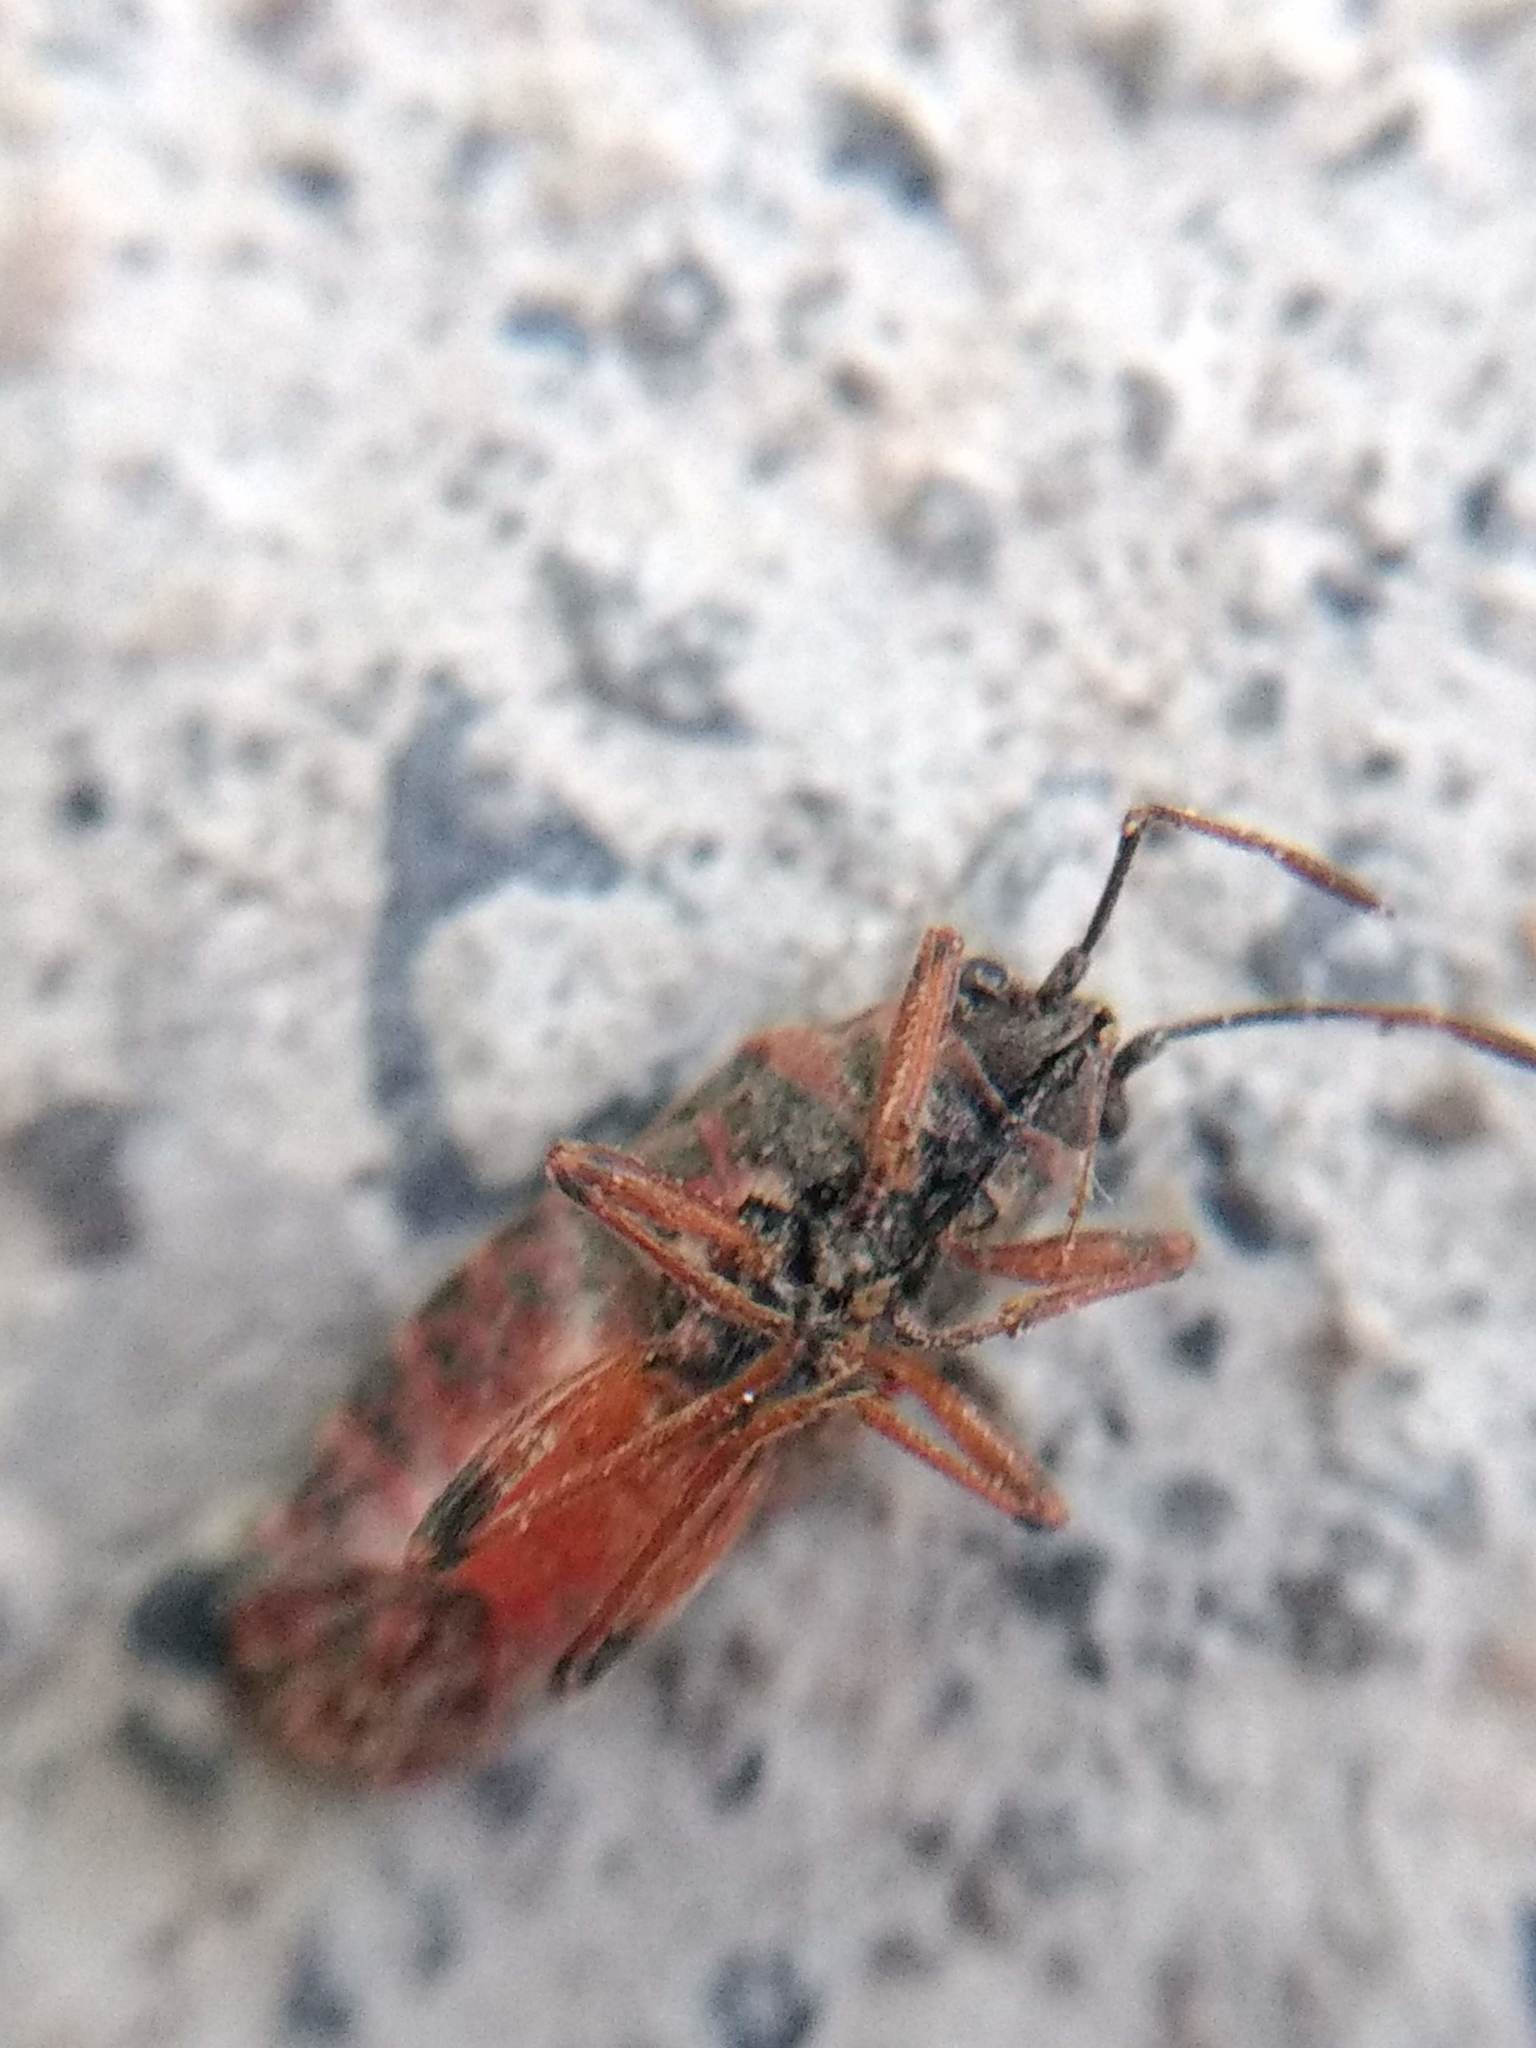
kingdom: Animalia
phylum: Arthropoda
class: Insecta
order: Hemiptera
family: Lygaeidae
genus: Arocatus
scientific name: Arocatus melanocephalus
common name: Lygaeid bug
